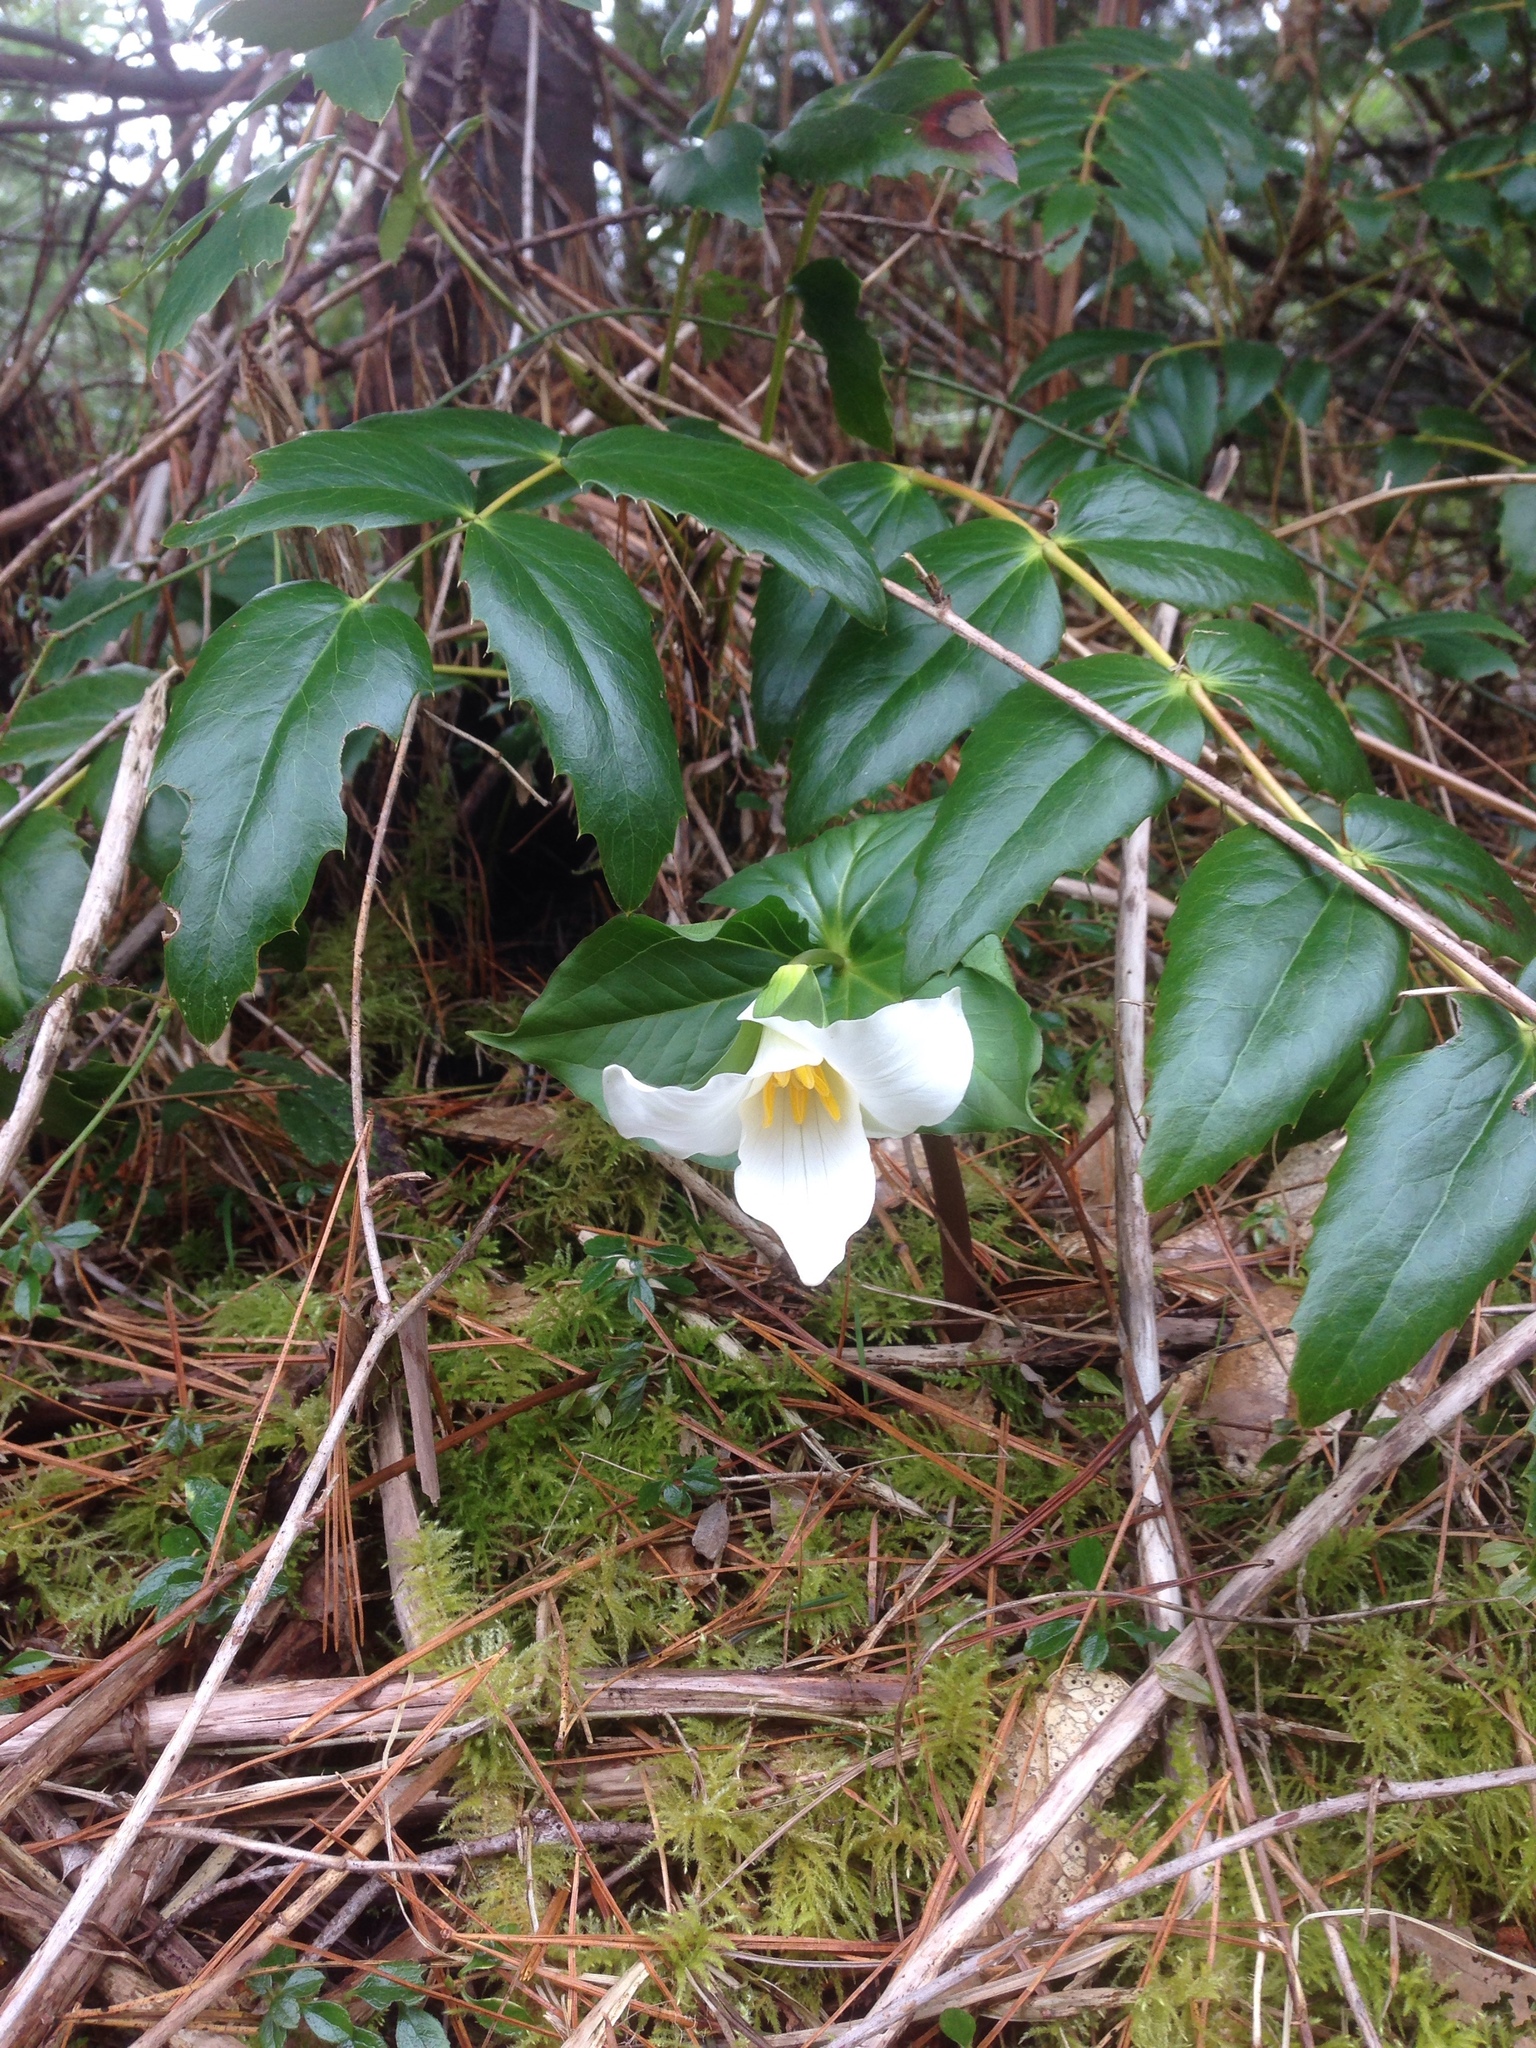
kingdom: Plantae
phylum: Tracheophyta
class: Liliopsida
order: Liliales
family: Melanthiaceae
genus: Trillium
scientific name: Trillium ovatum
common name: Pacific trillium
